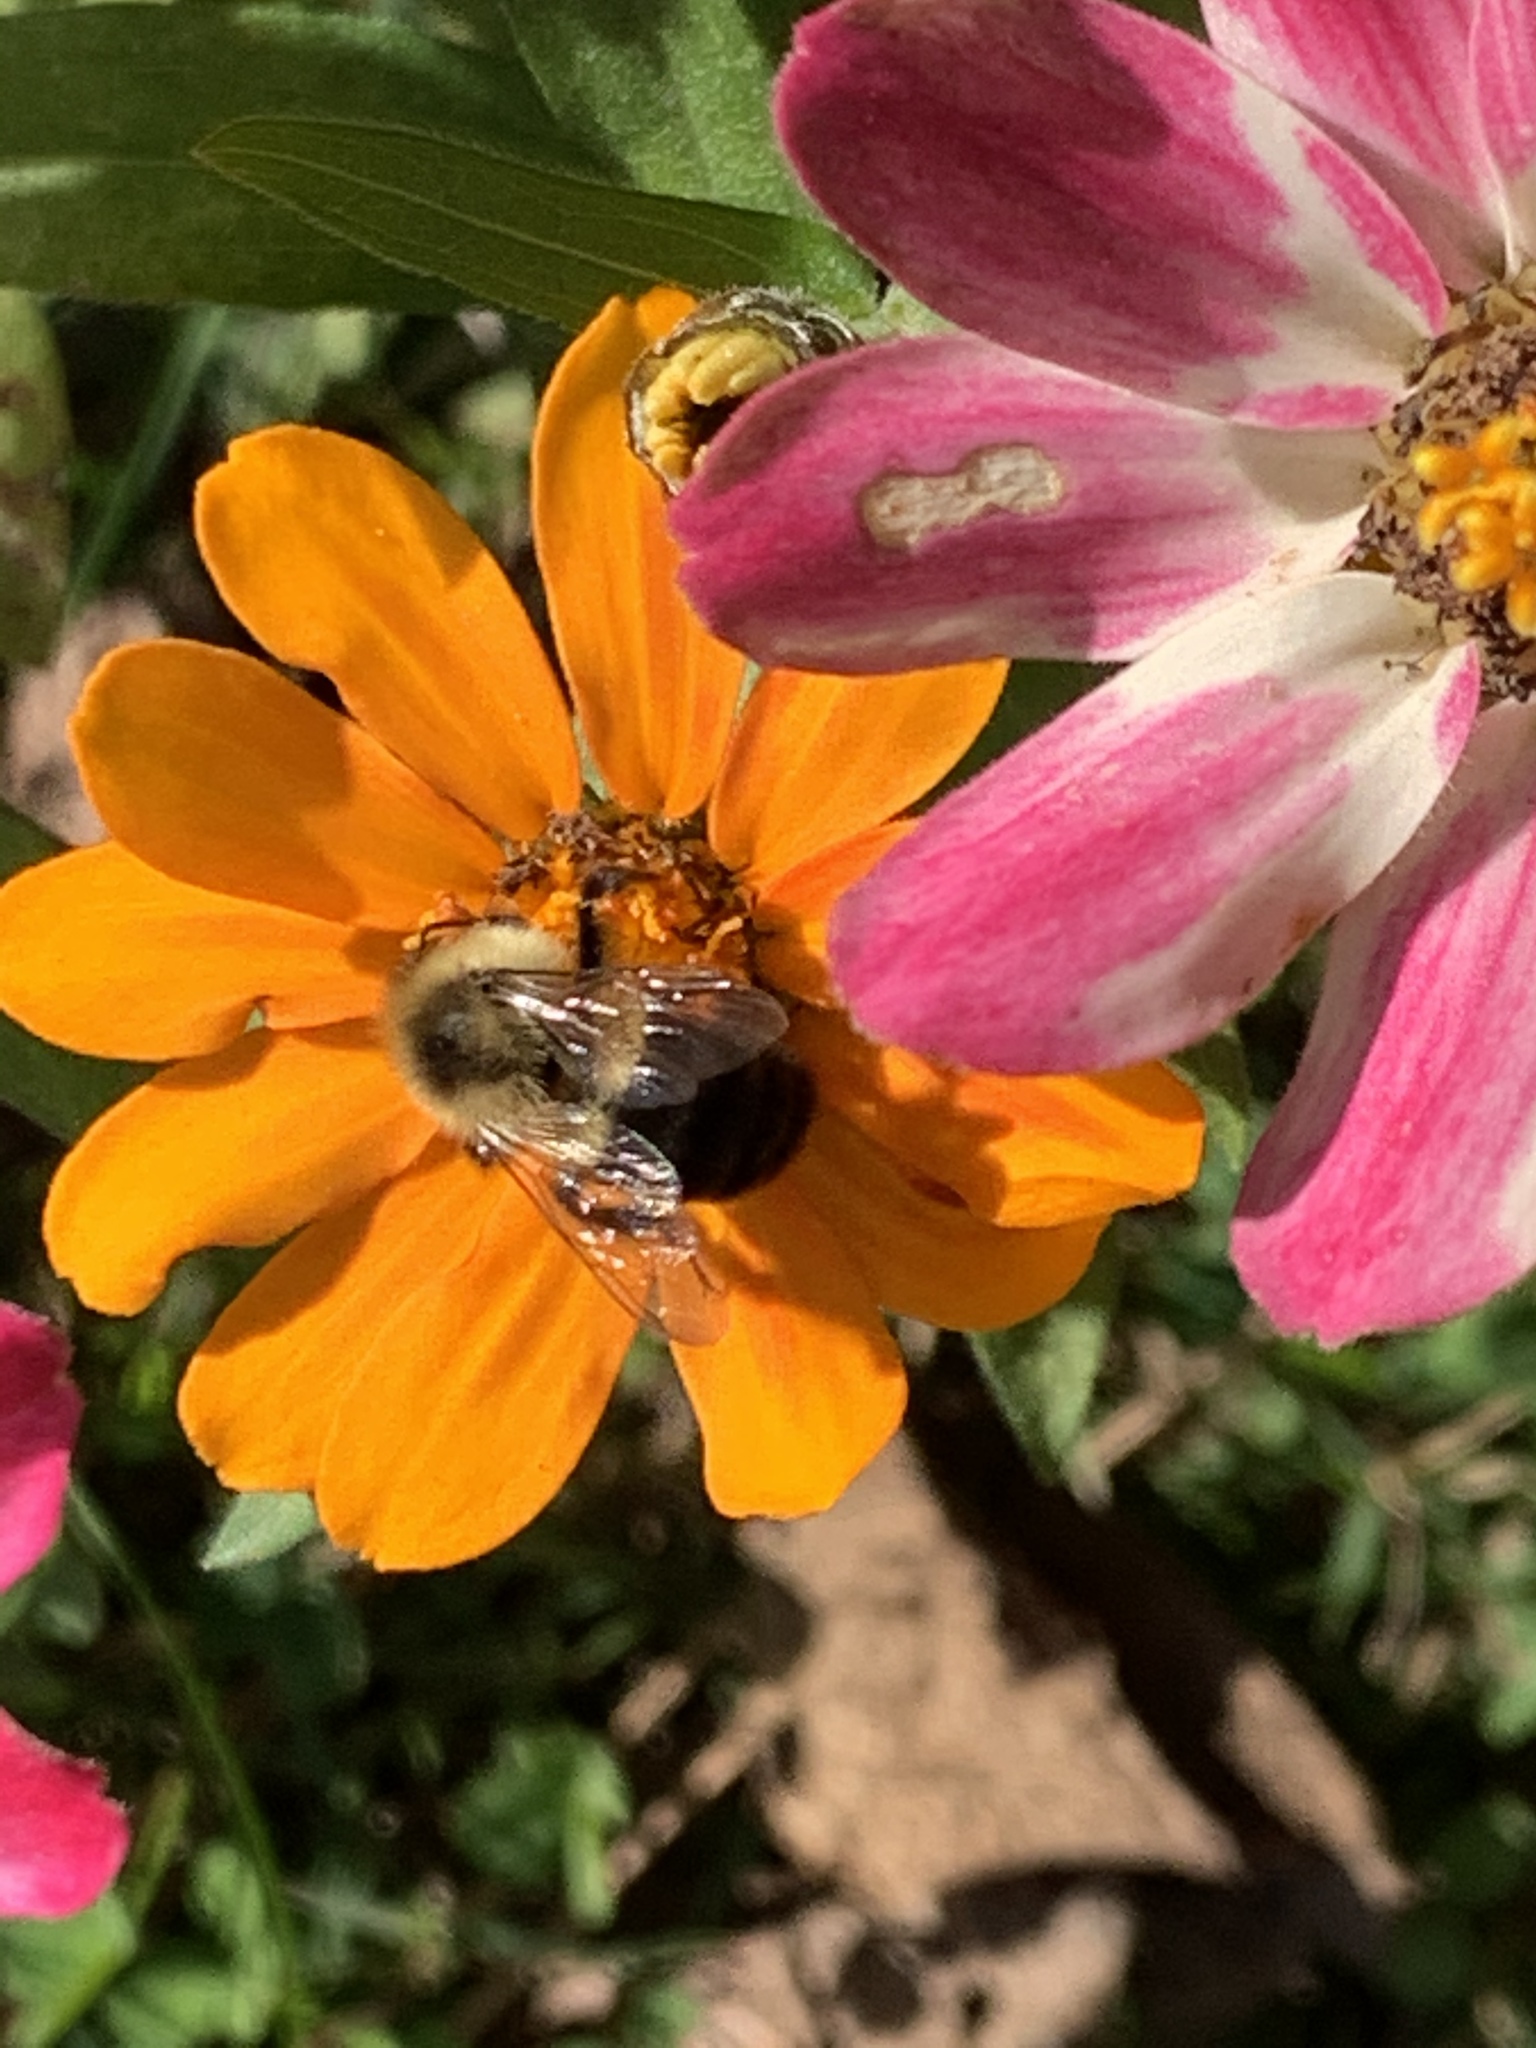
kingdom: Animalia
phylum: Arthropoda
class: Insecta
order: Hymenoptera
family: Apidae
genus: Bombus
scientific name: Bombus impatiens
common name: Common eastern bumble bee
